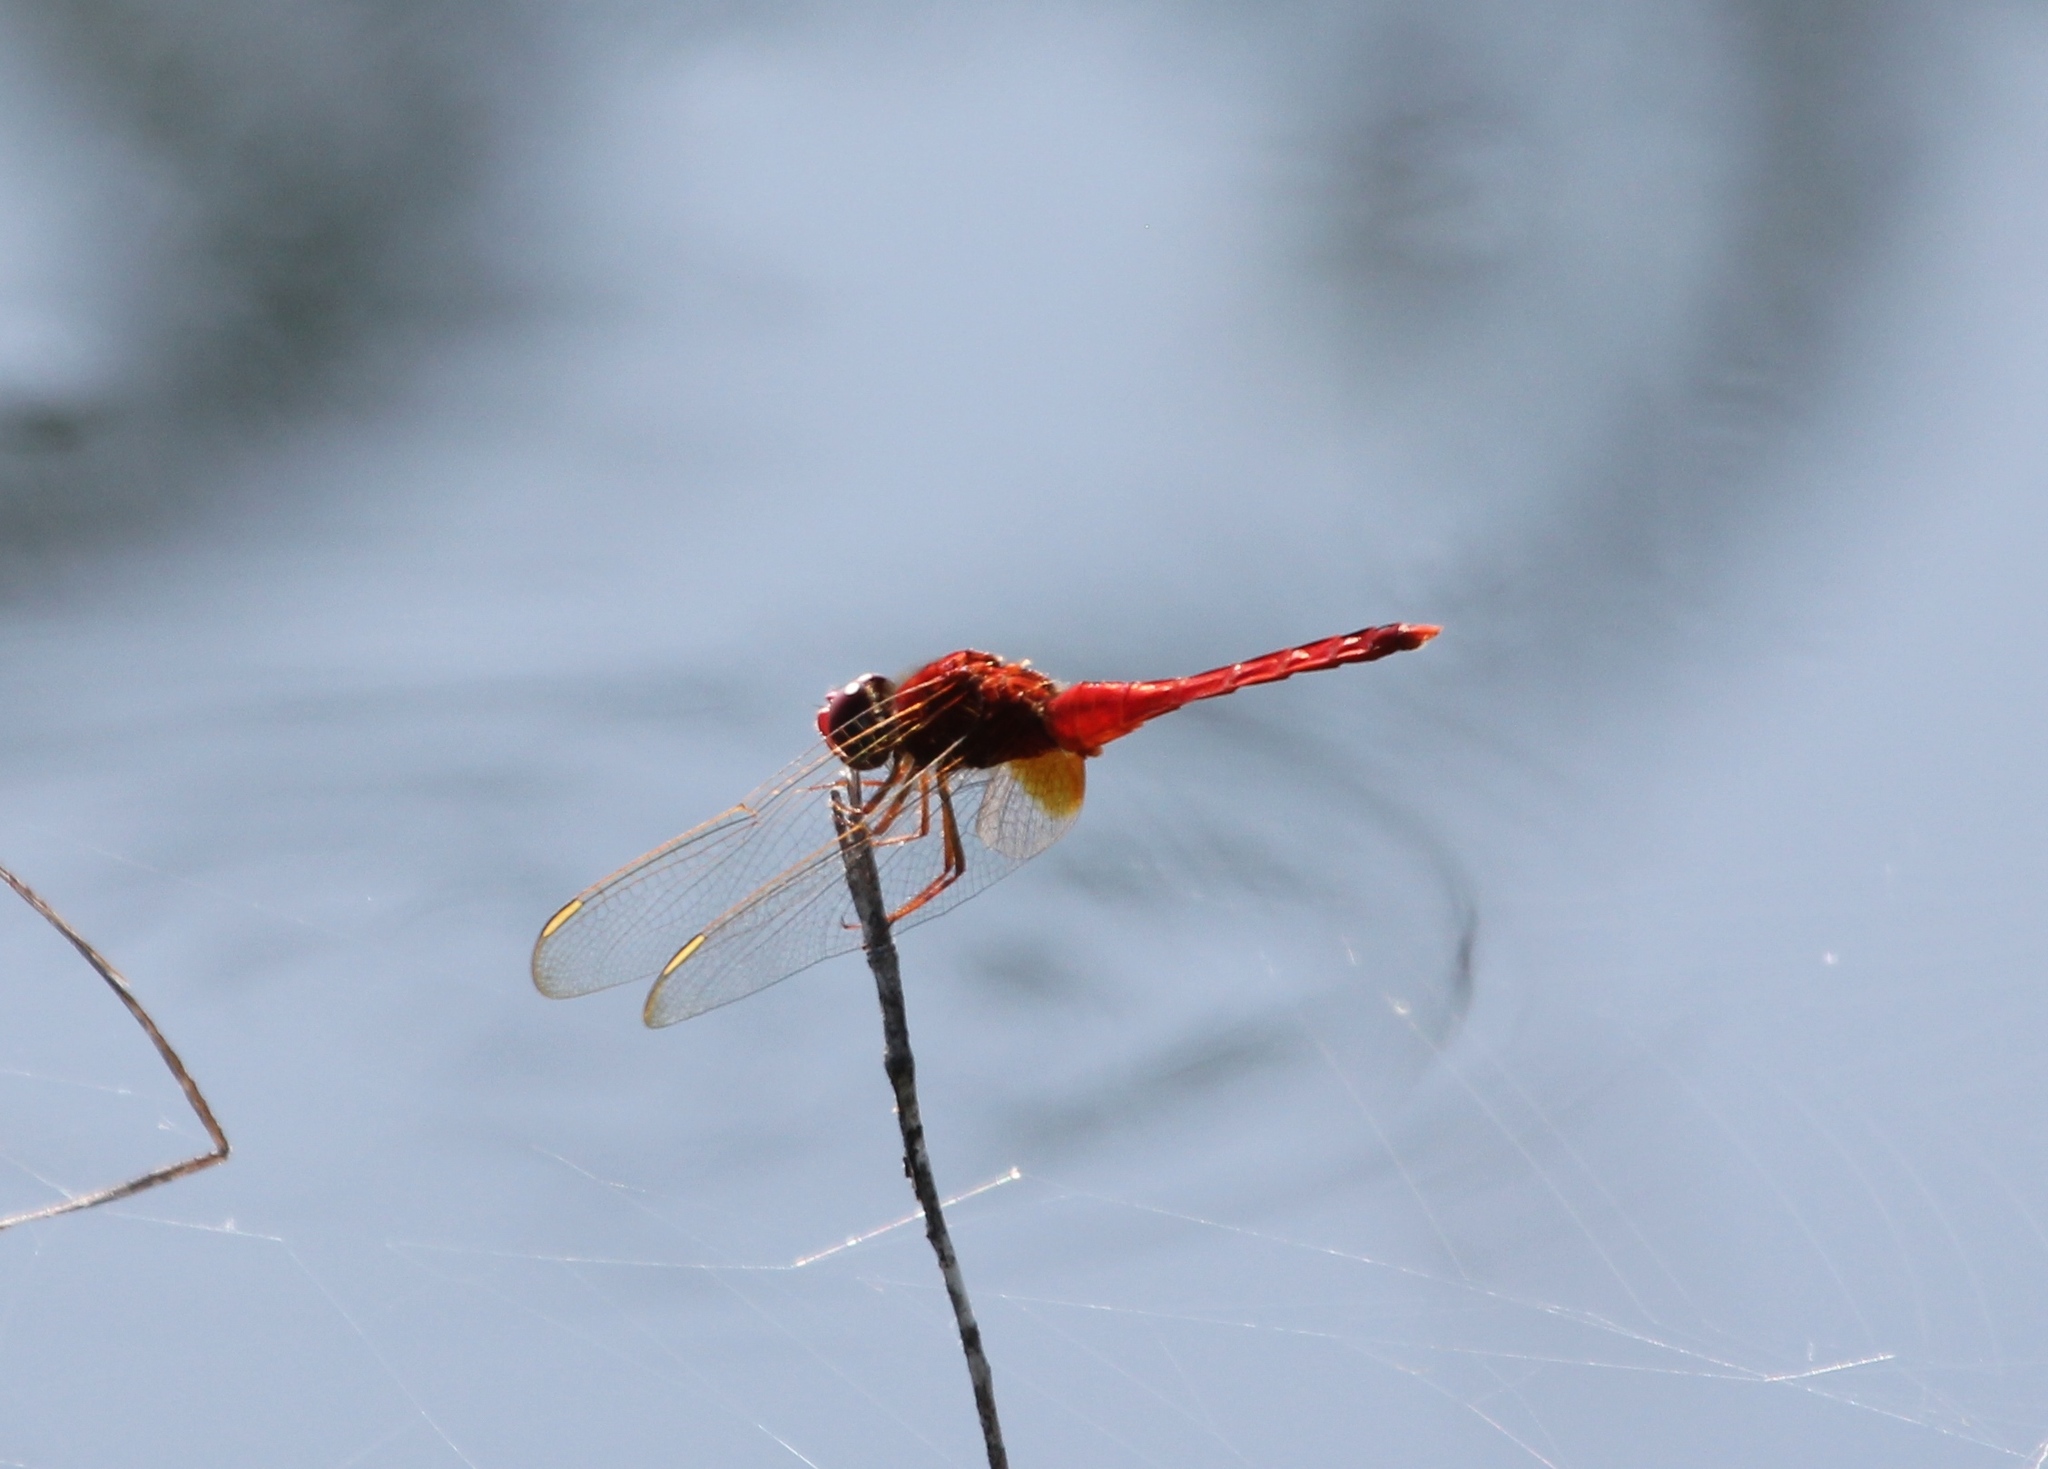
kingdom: Animalia
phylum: Arthropoda
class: Insecta
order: Odonata
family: Libellulidae
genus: Crocothemis
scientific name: Crocothemis servilia
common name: Scarlet skimmer
